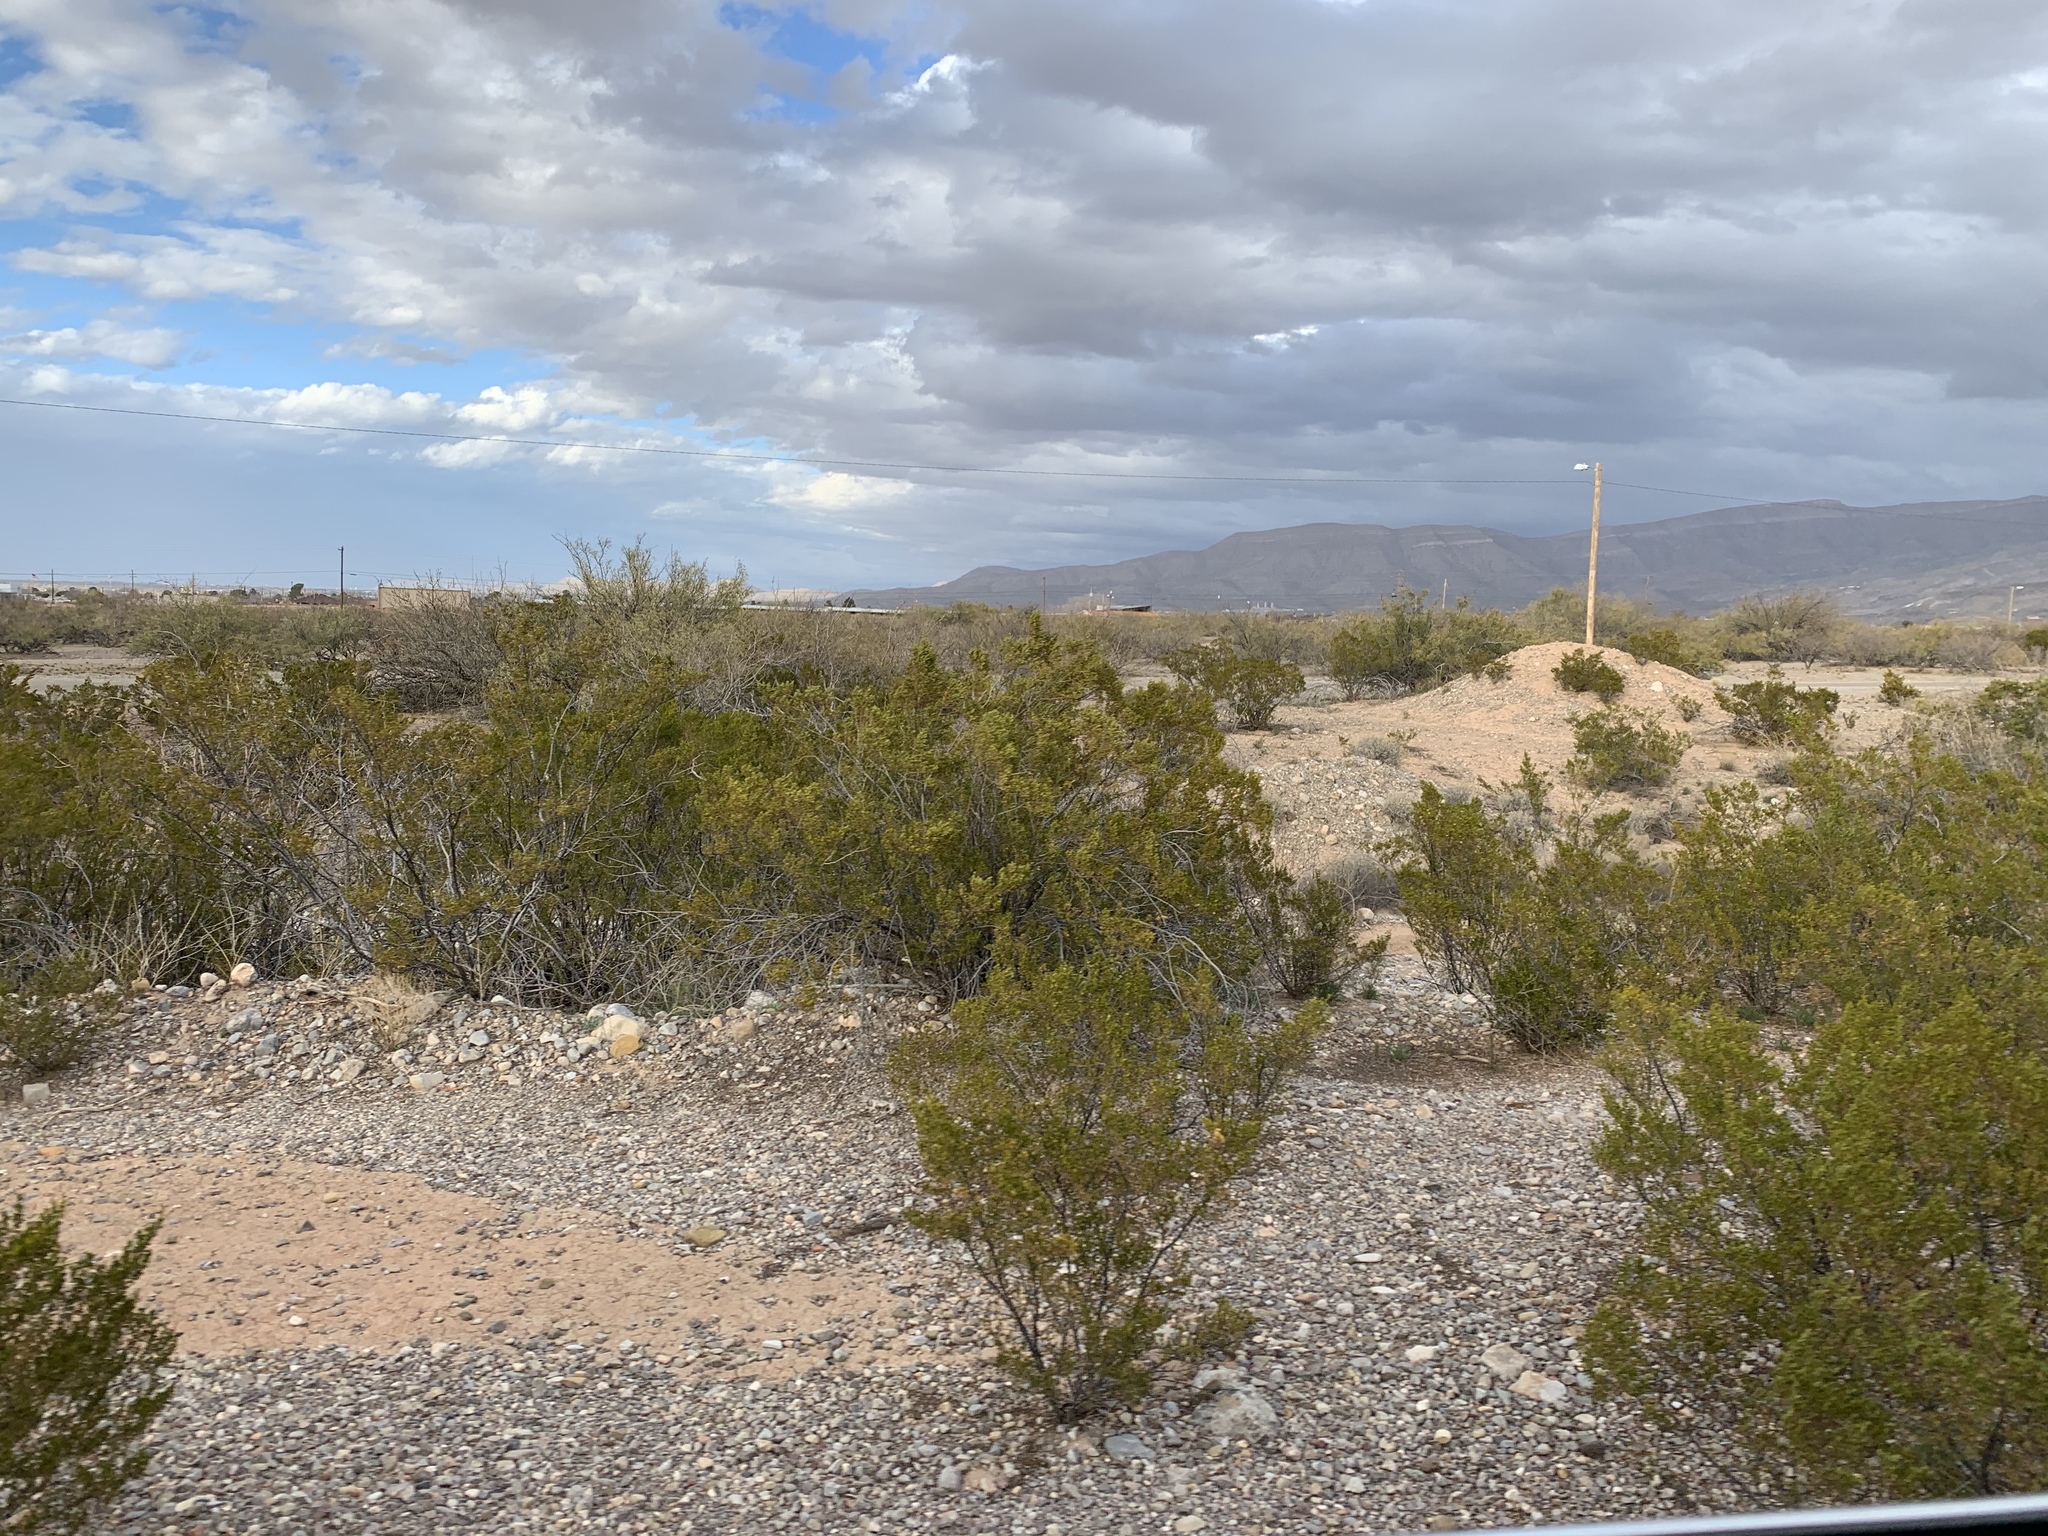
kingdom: Plantae
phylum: Tracheophyta
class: Magnoliopsida
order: Zygophyllales
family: Zygophyllaceae
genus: Larrea
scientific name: Larrea tridentata
